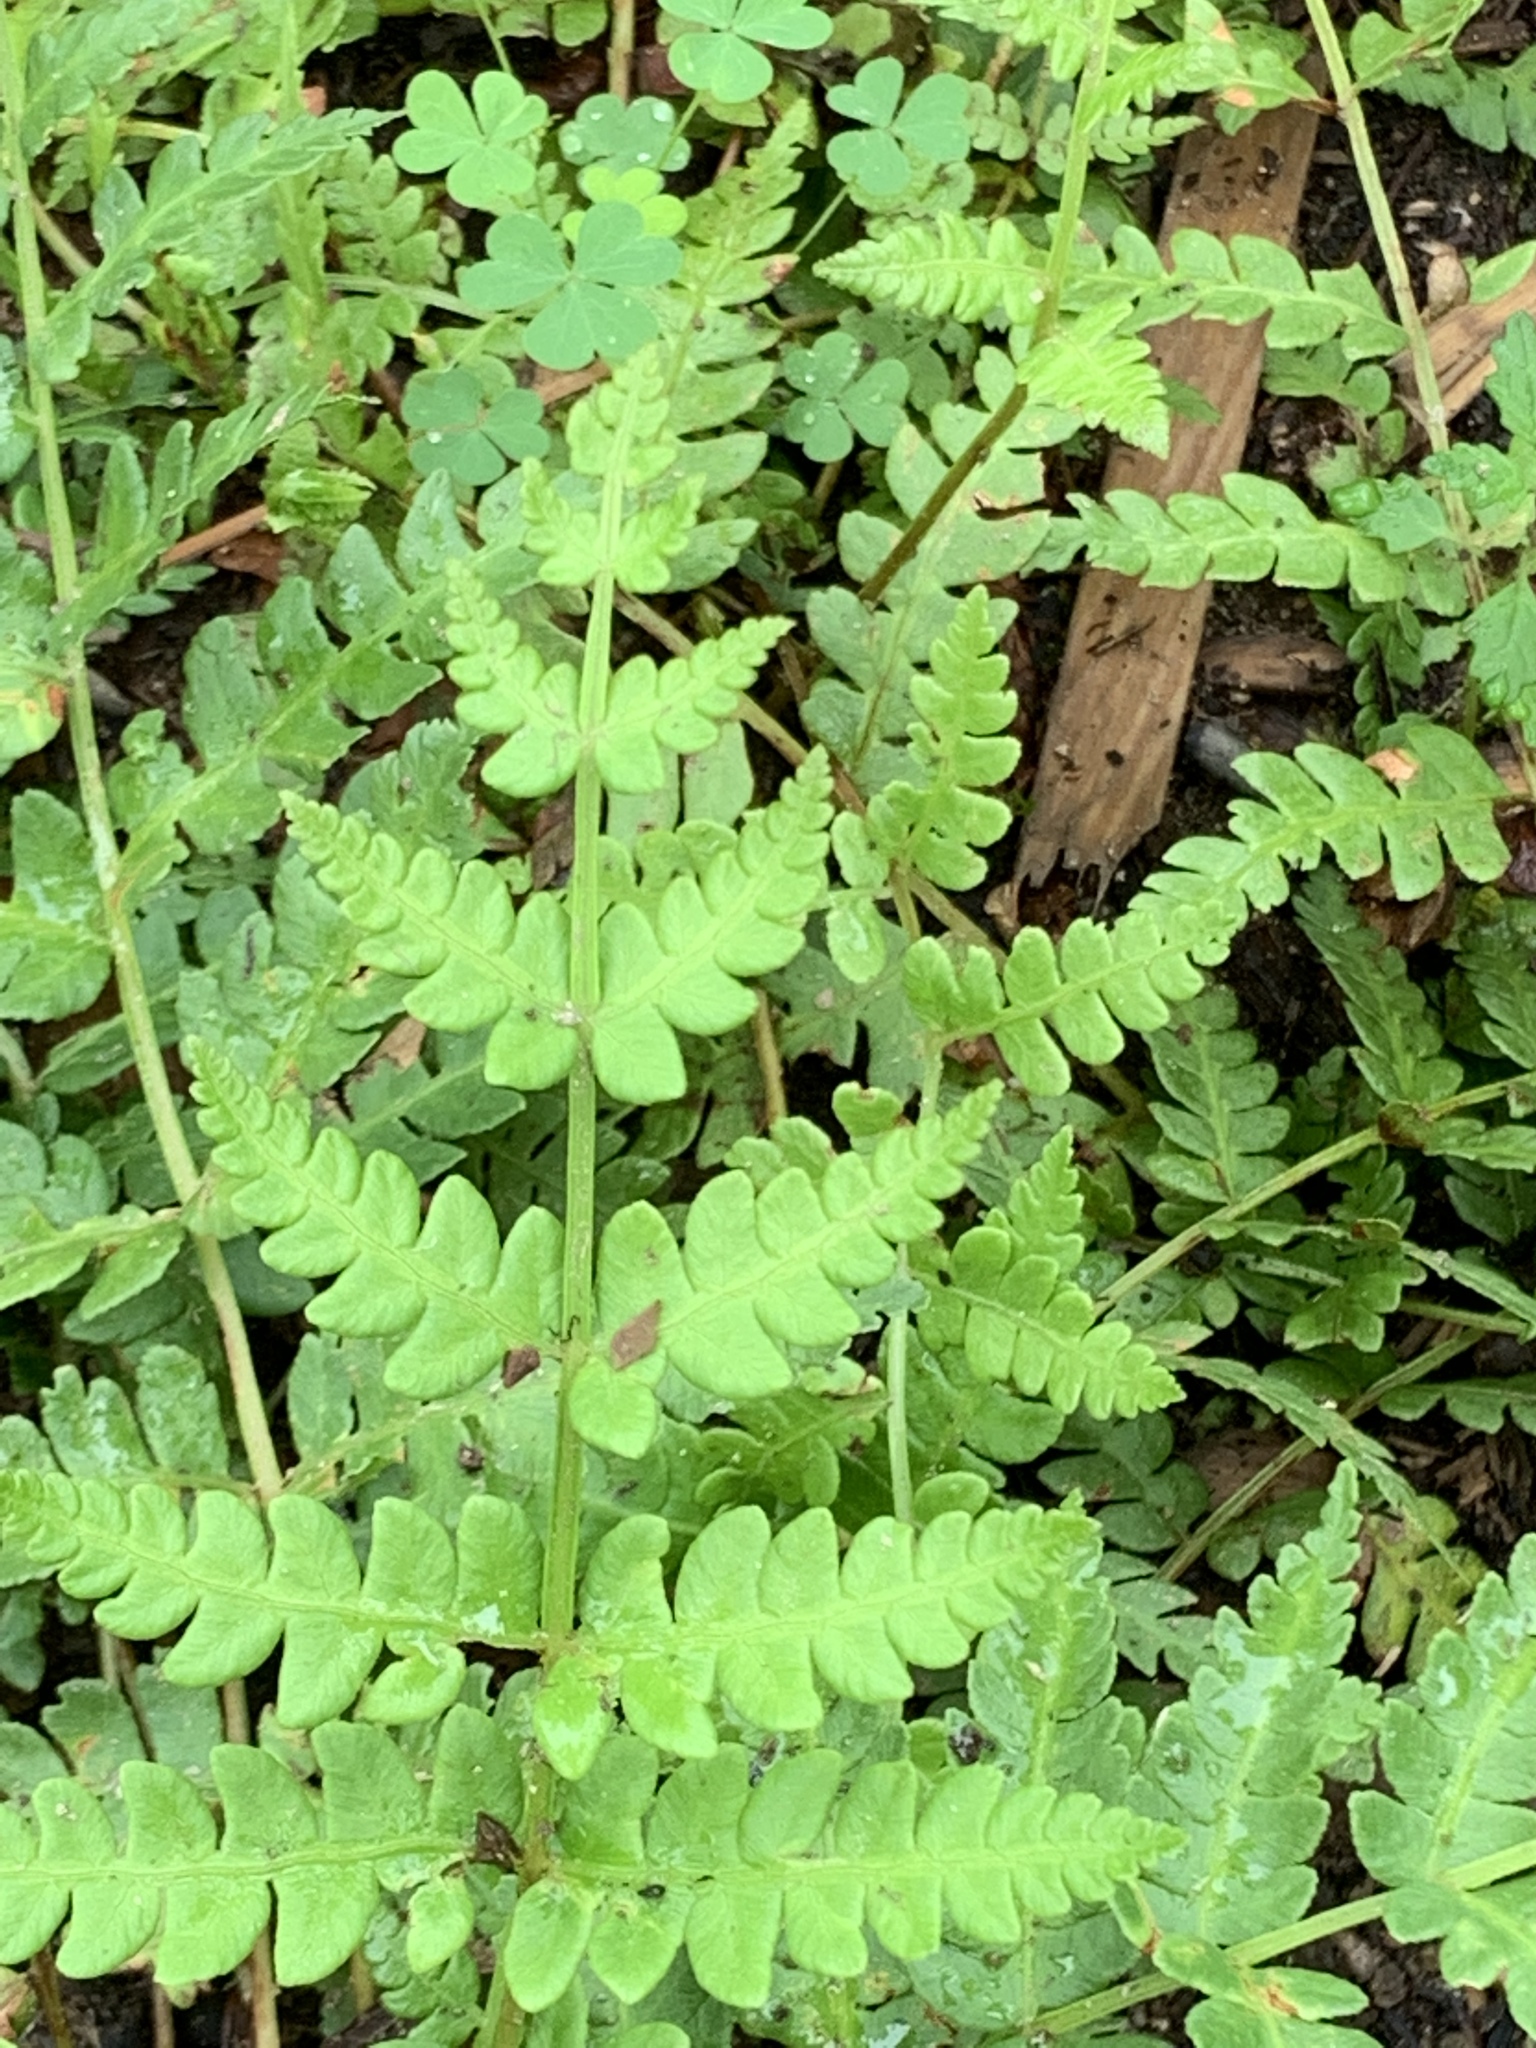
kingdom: Plantae
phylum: Tracheophyta
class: Polypodiopsida
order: Osmundales
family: Osmundaceae
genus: Osmundastrum
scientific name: Osmundastrum cinnamomeum
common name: Cinnamon fern
